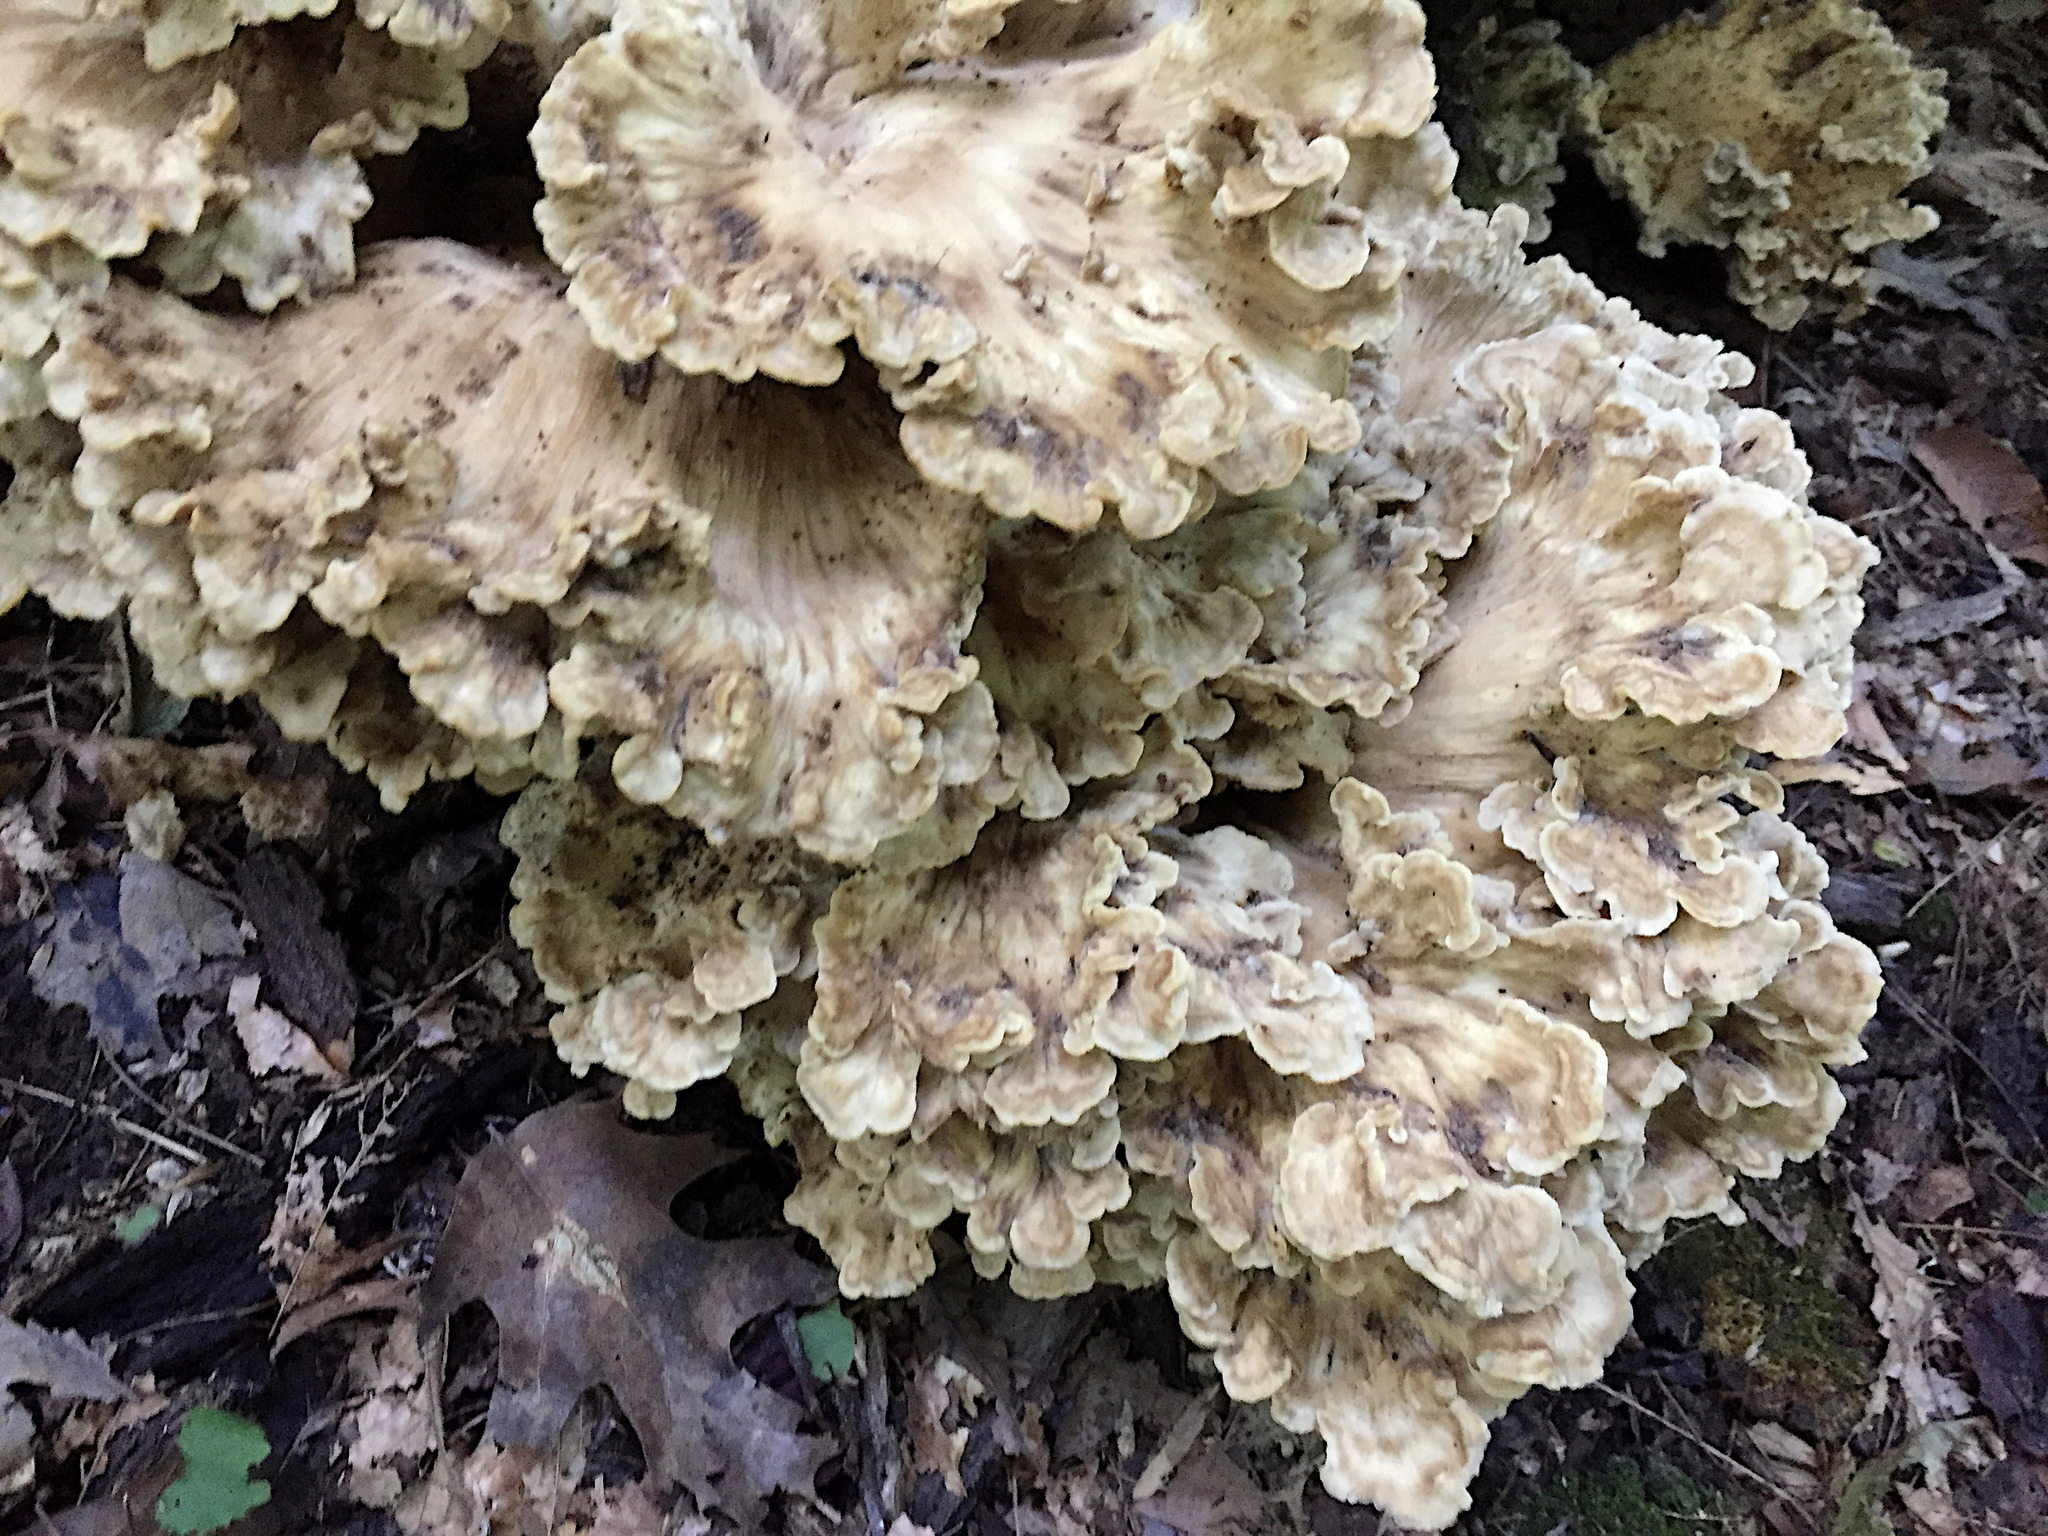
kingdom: Fungi
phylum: Basidiomycota
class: Agaricomycetes
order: Polyporales
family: Meripilaceae
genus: Meripilus
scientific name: Meripilus sumstinei
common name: Black-staining polypore
